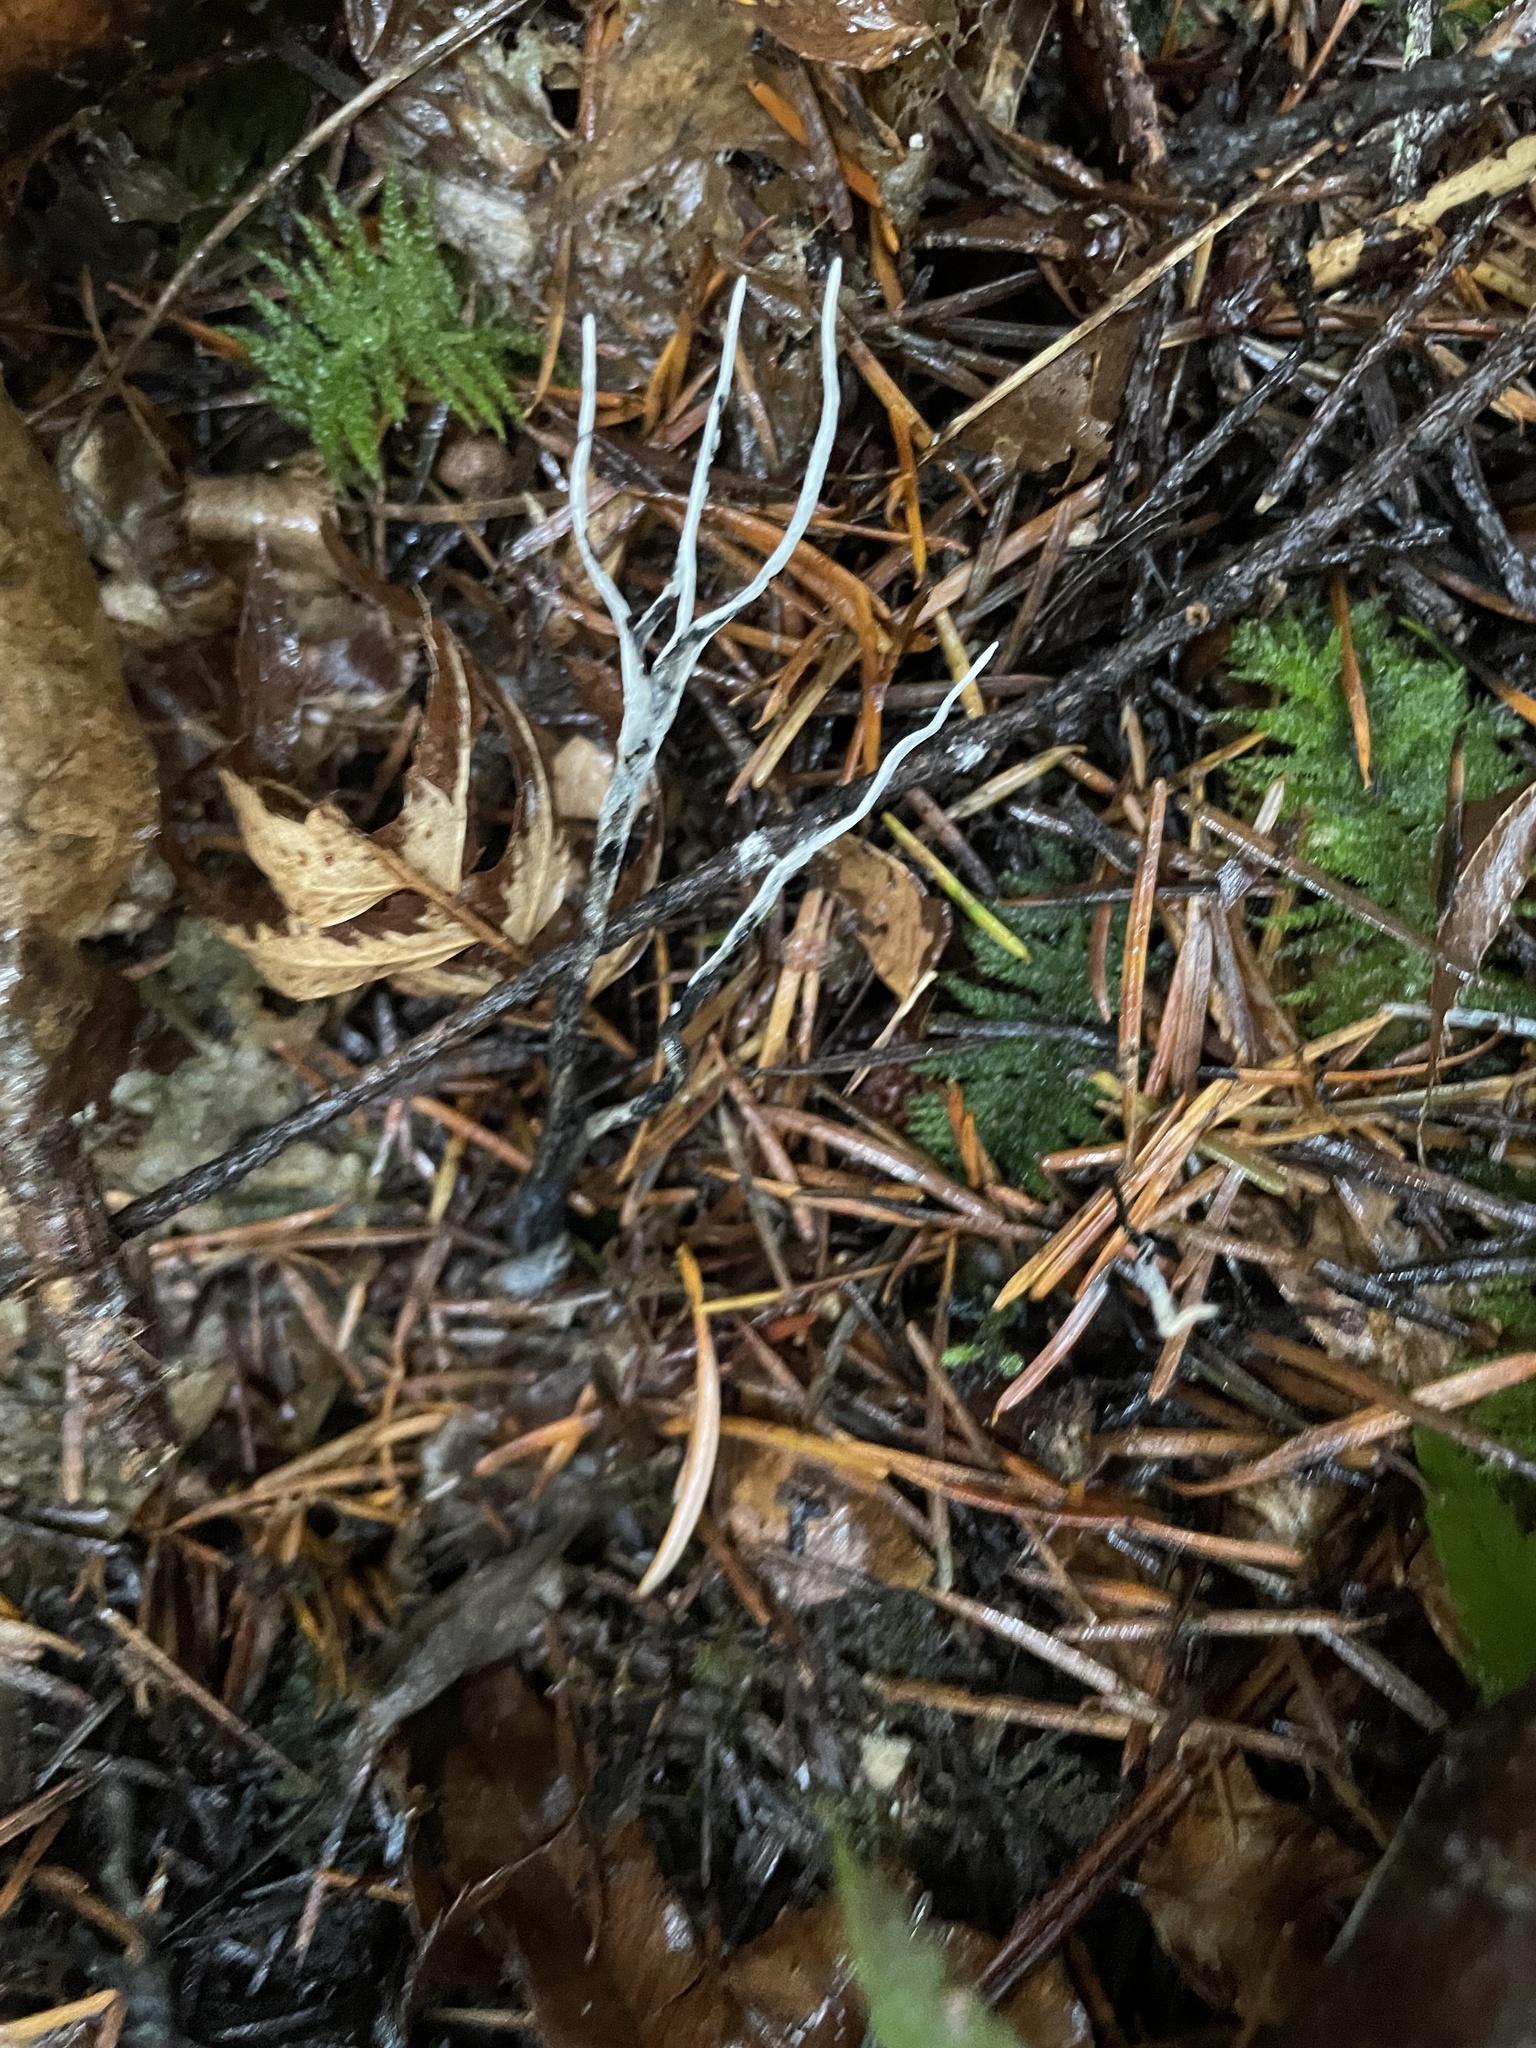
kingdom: Fungi
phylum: Ascomycota
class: Sordariomycetes
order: Xylariales
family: Xylariaceae
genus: Xylaria
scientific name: Xylaria hypoxylon
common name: Candle-snuff fungus
